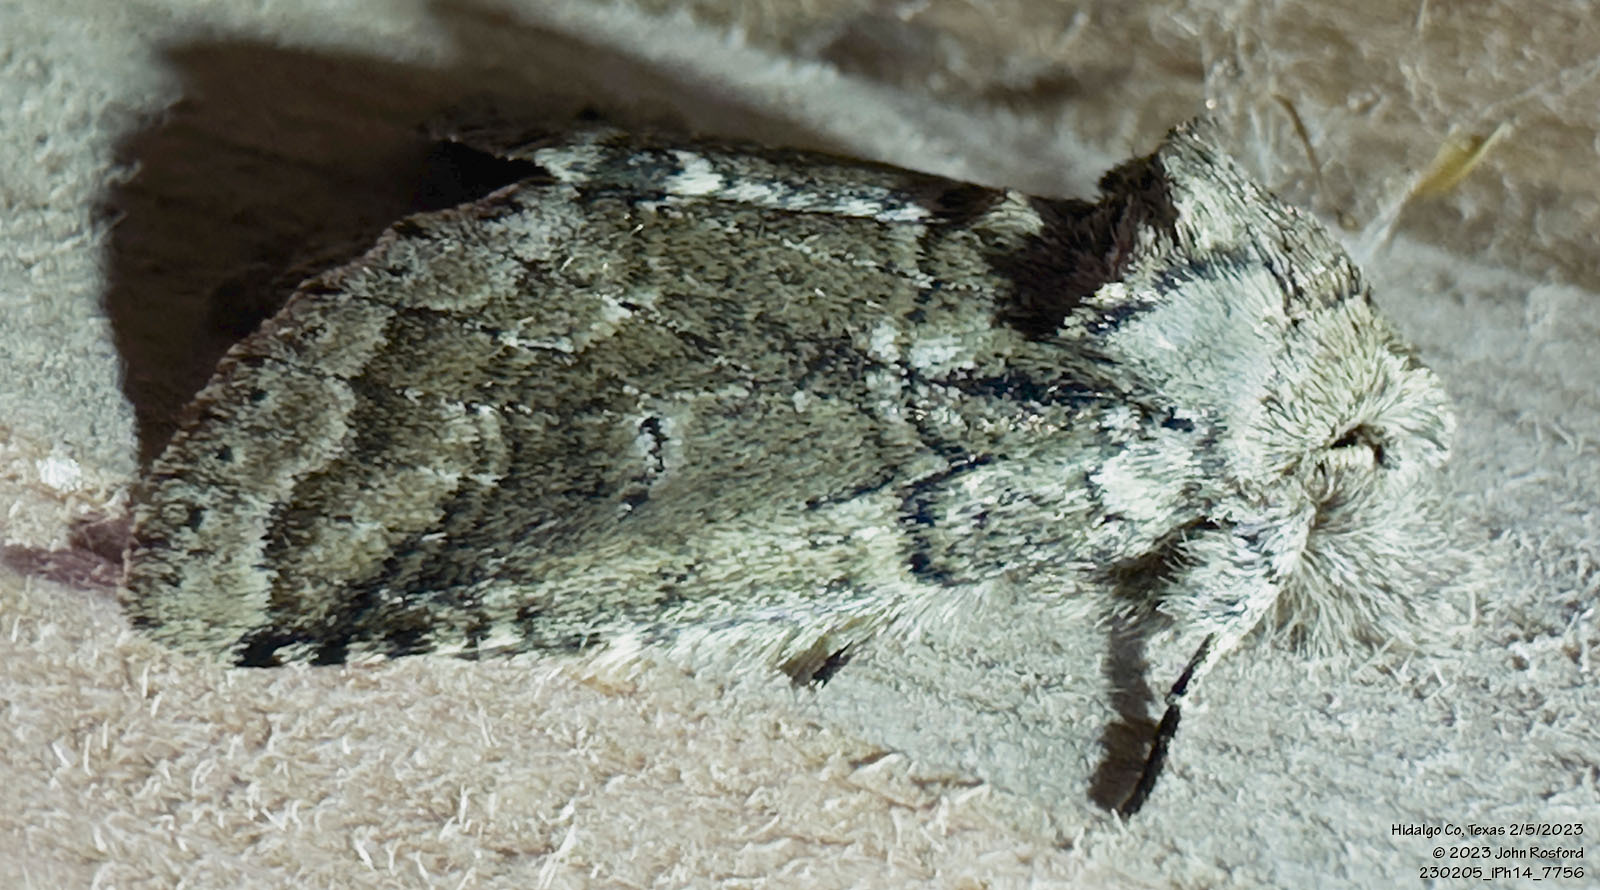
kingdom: Animalia
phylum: Arthropoda
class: Insecta
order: Lepidoptera
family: Notodontidae
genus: Lochmaeus
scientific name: Lochmaeus bilineata
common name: Double-lined prominent
